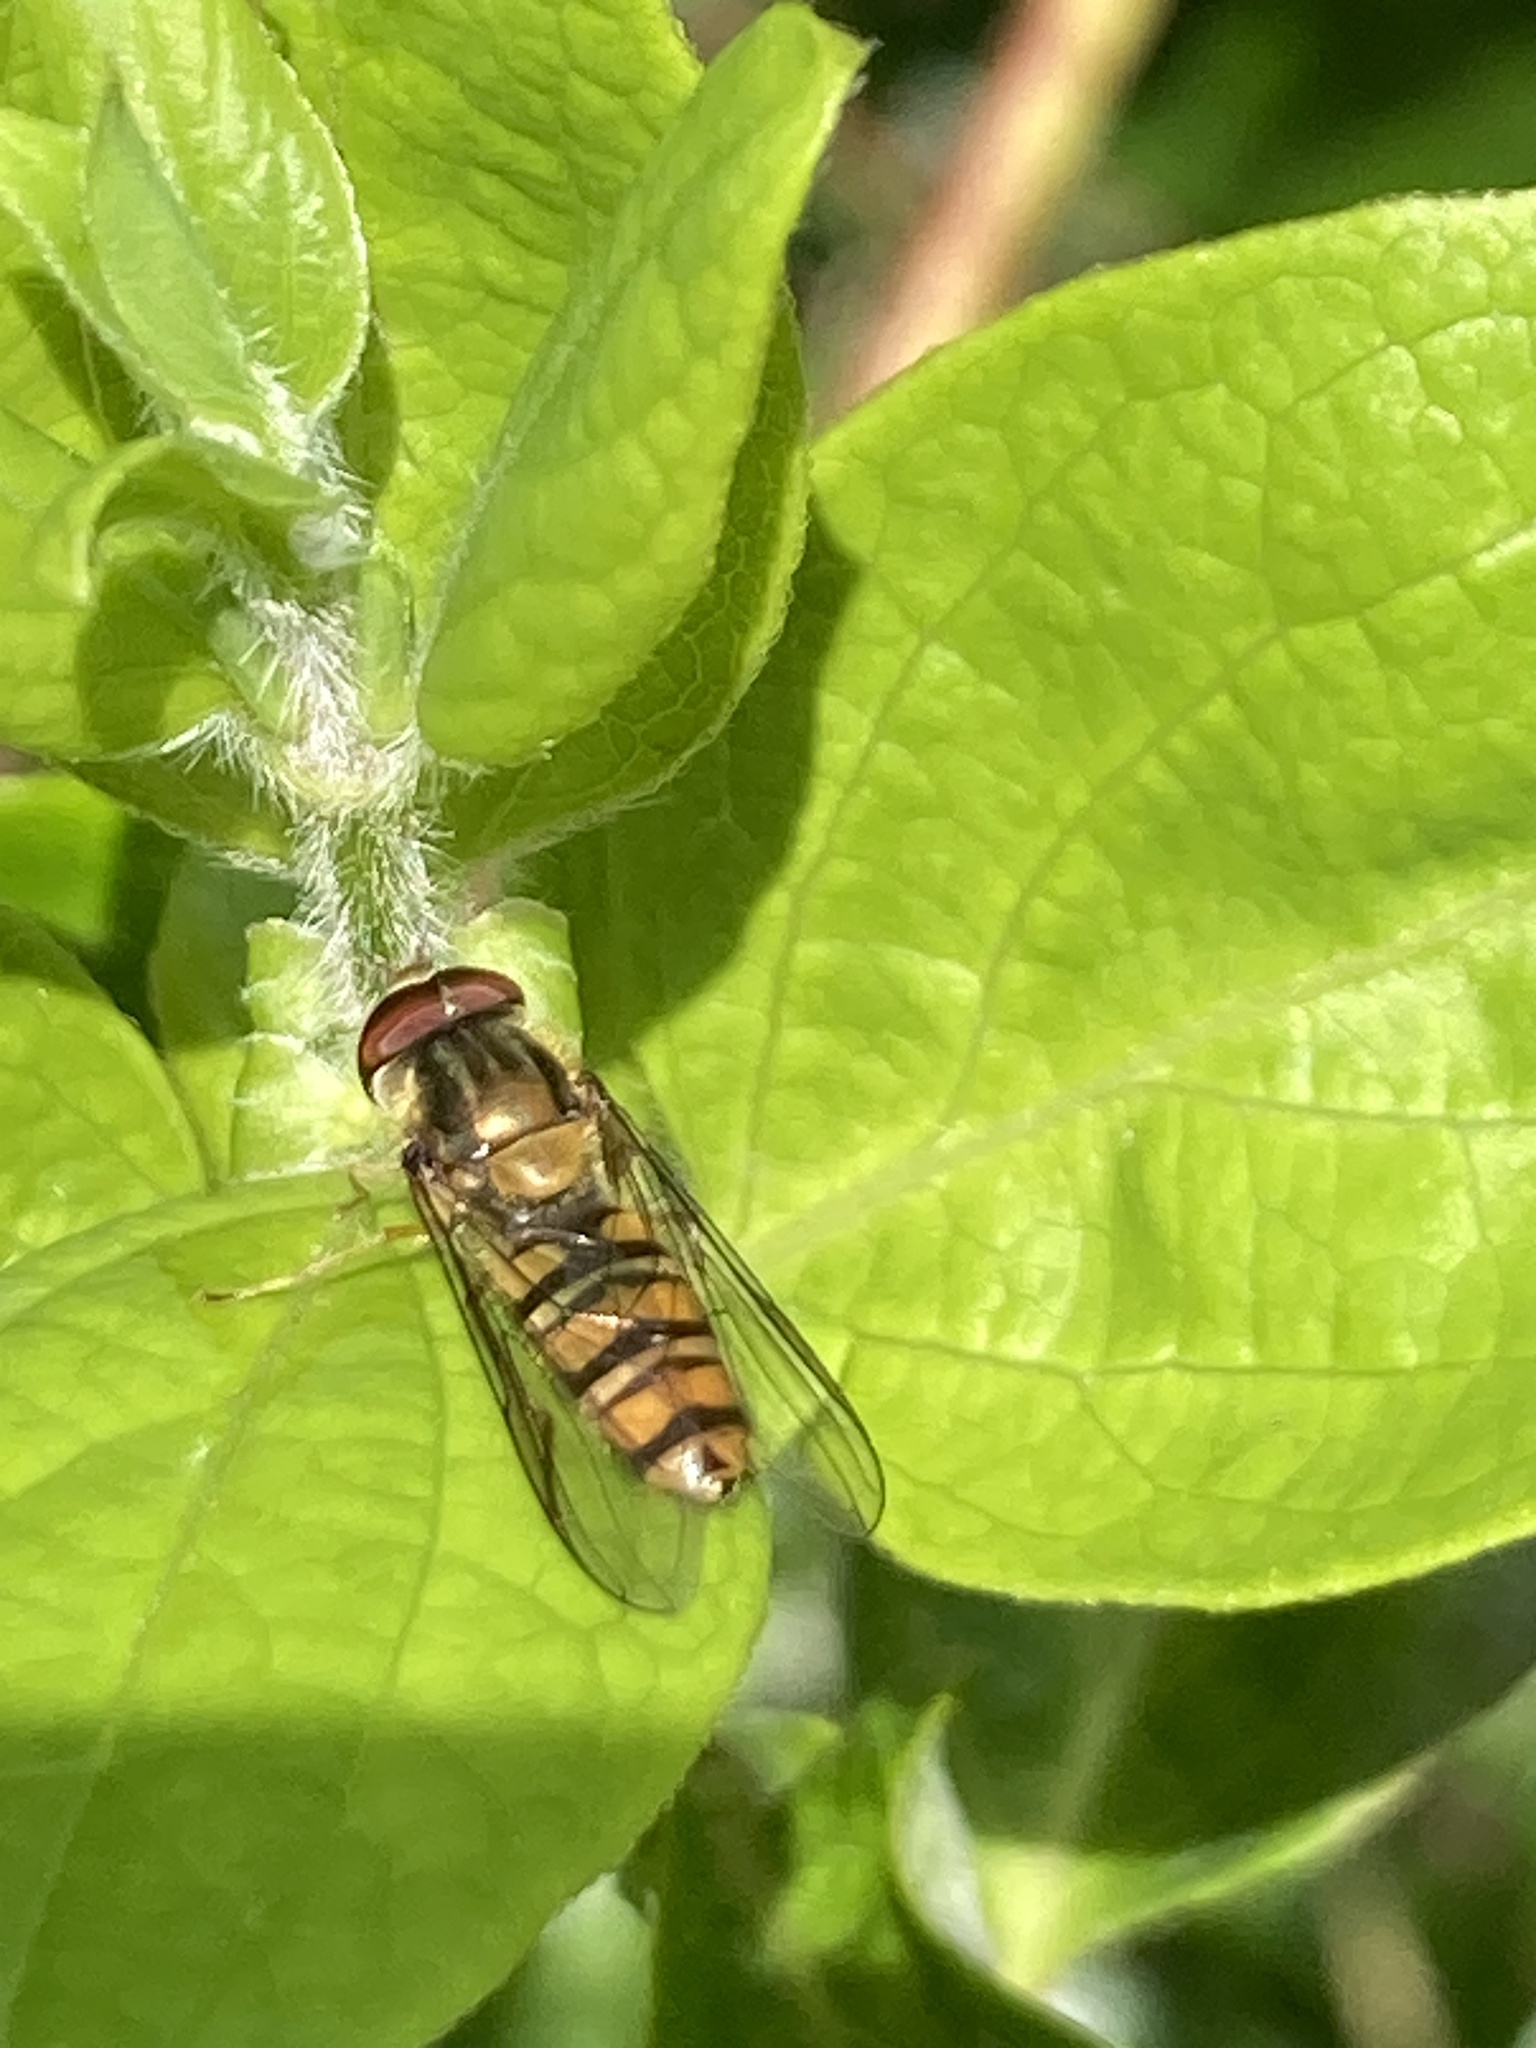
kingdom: Animalia
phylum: Arthropoda
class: Insecta
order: Diptera
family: Syrphidae
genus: Episyrphus
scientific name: Episyrphus balteatus
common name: Marmalade hoverfly
